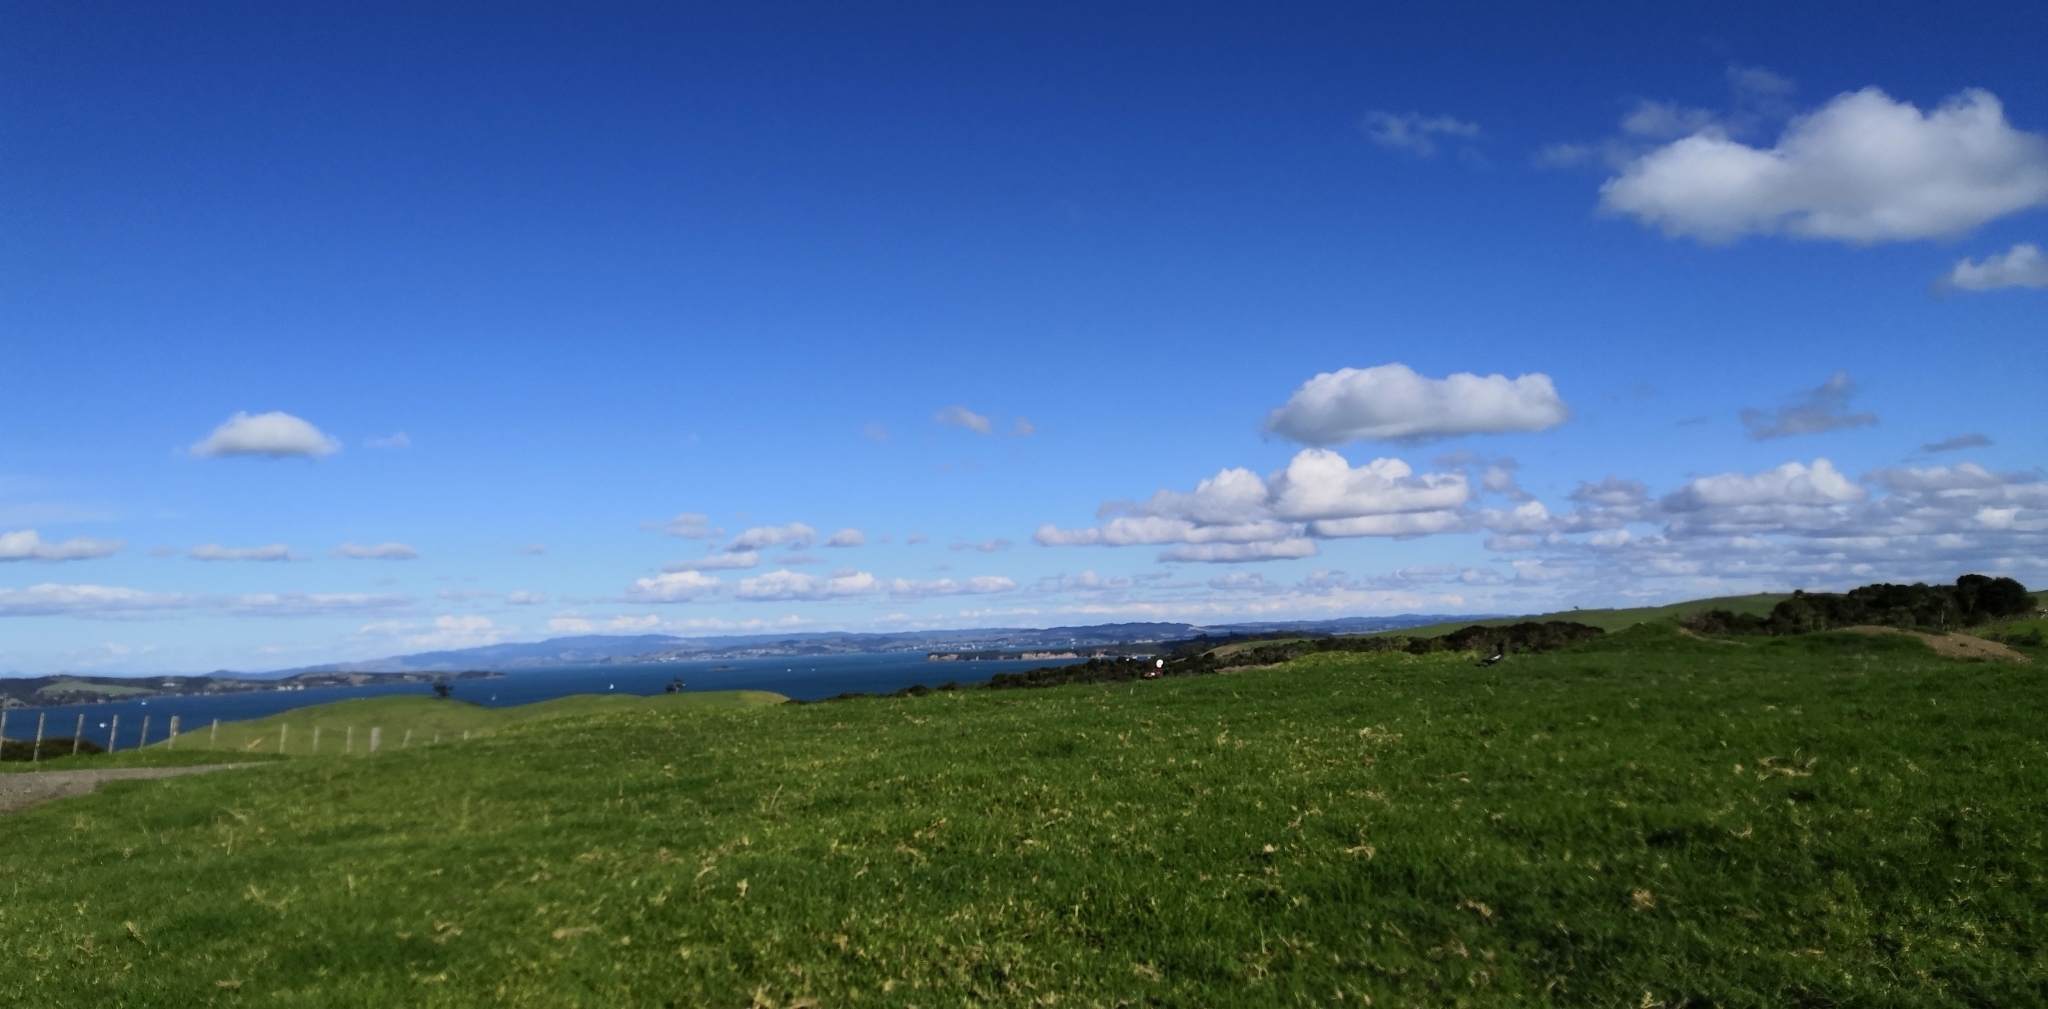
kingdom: Animalia
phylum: Chordata
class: Aves
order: Anseriformes
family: Anatidae
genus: Tadorna
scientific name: Tadorna variegata
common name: Paradise shelduck
